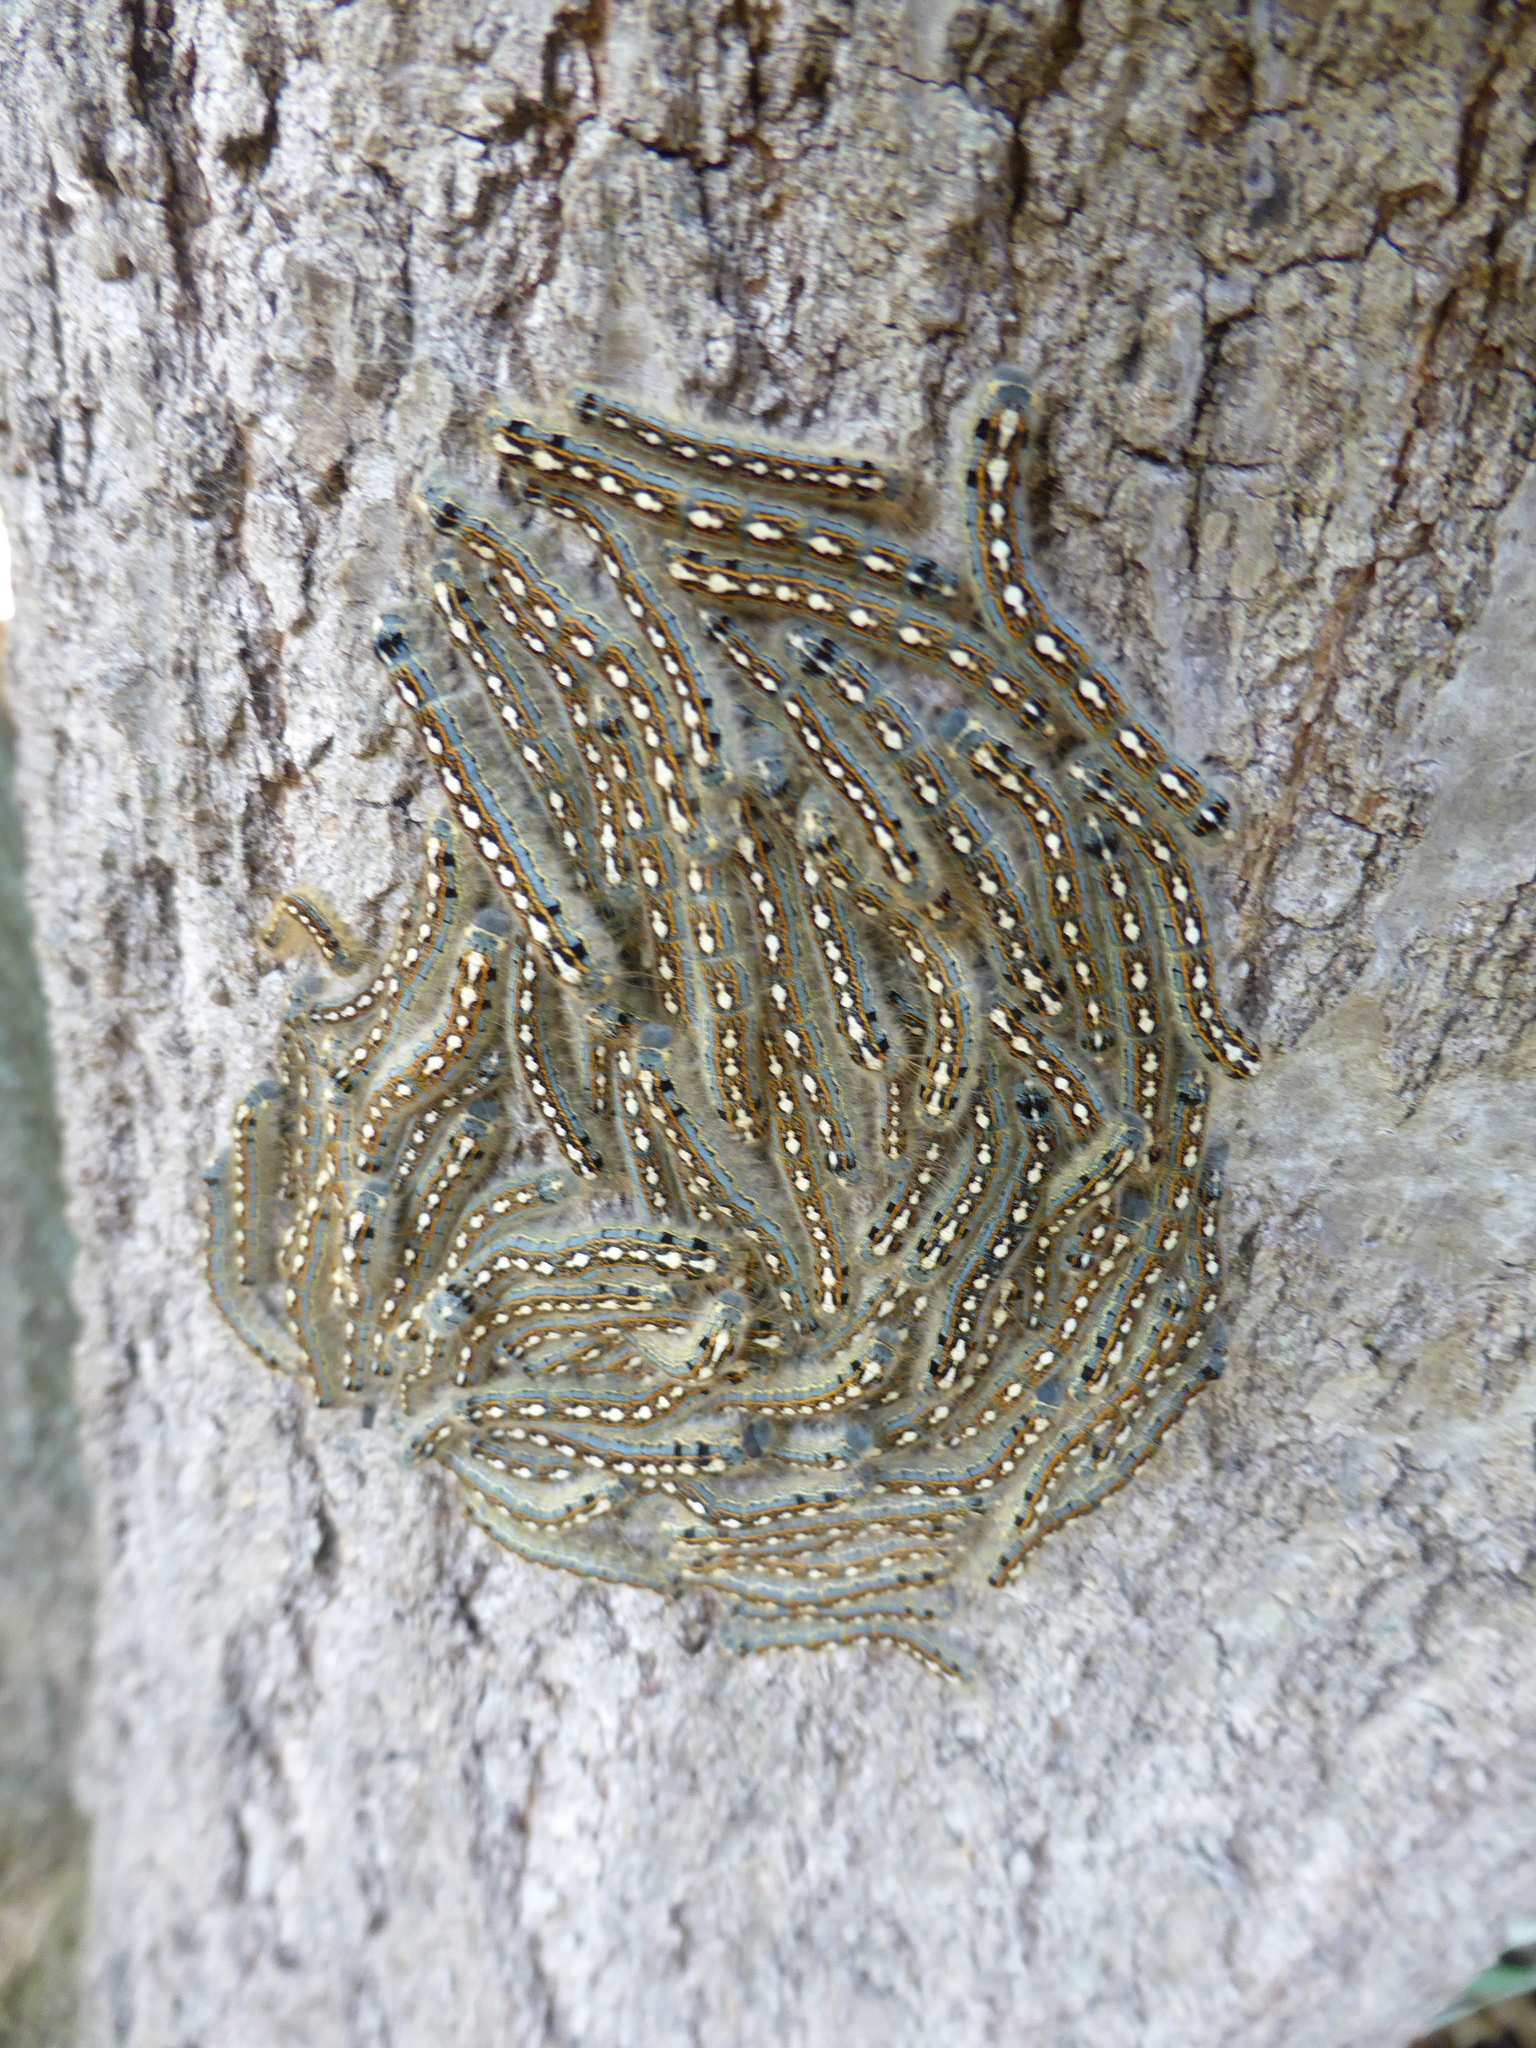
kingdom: Animalia
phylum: Arthropoda
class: Insecta
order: Lepidoptera
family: Lasiocampidae
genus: Malacosoma
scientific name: Malacosoma disstria
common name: Forest tent caterpillar
